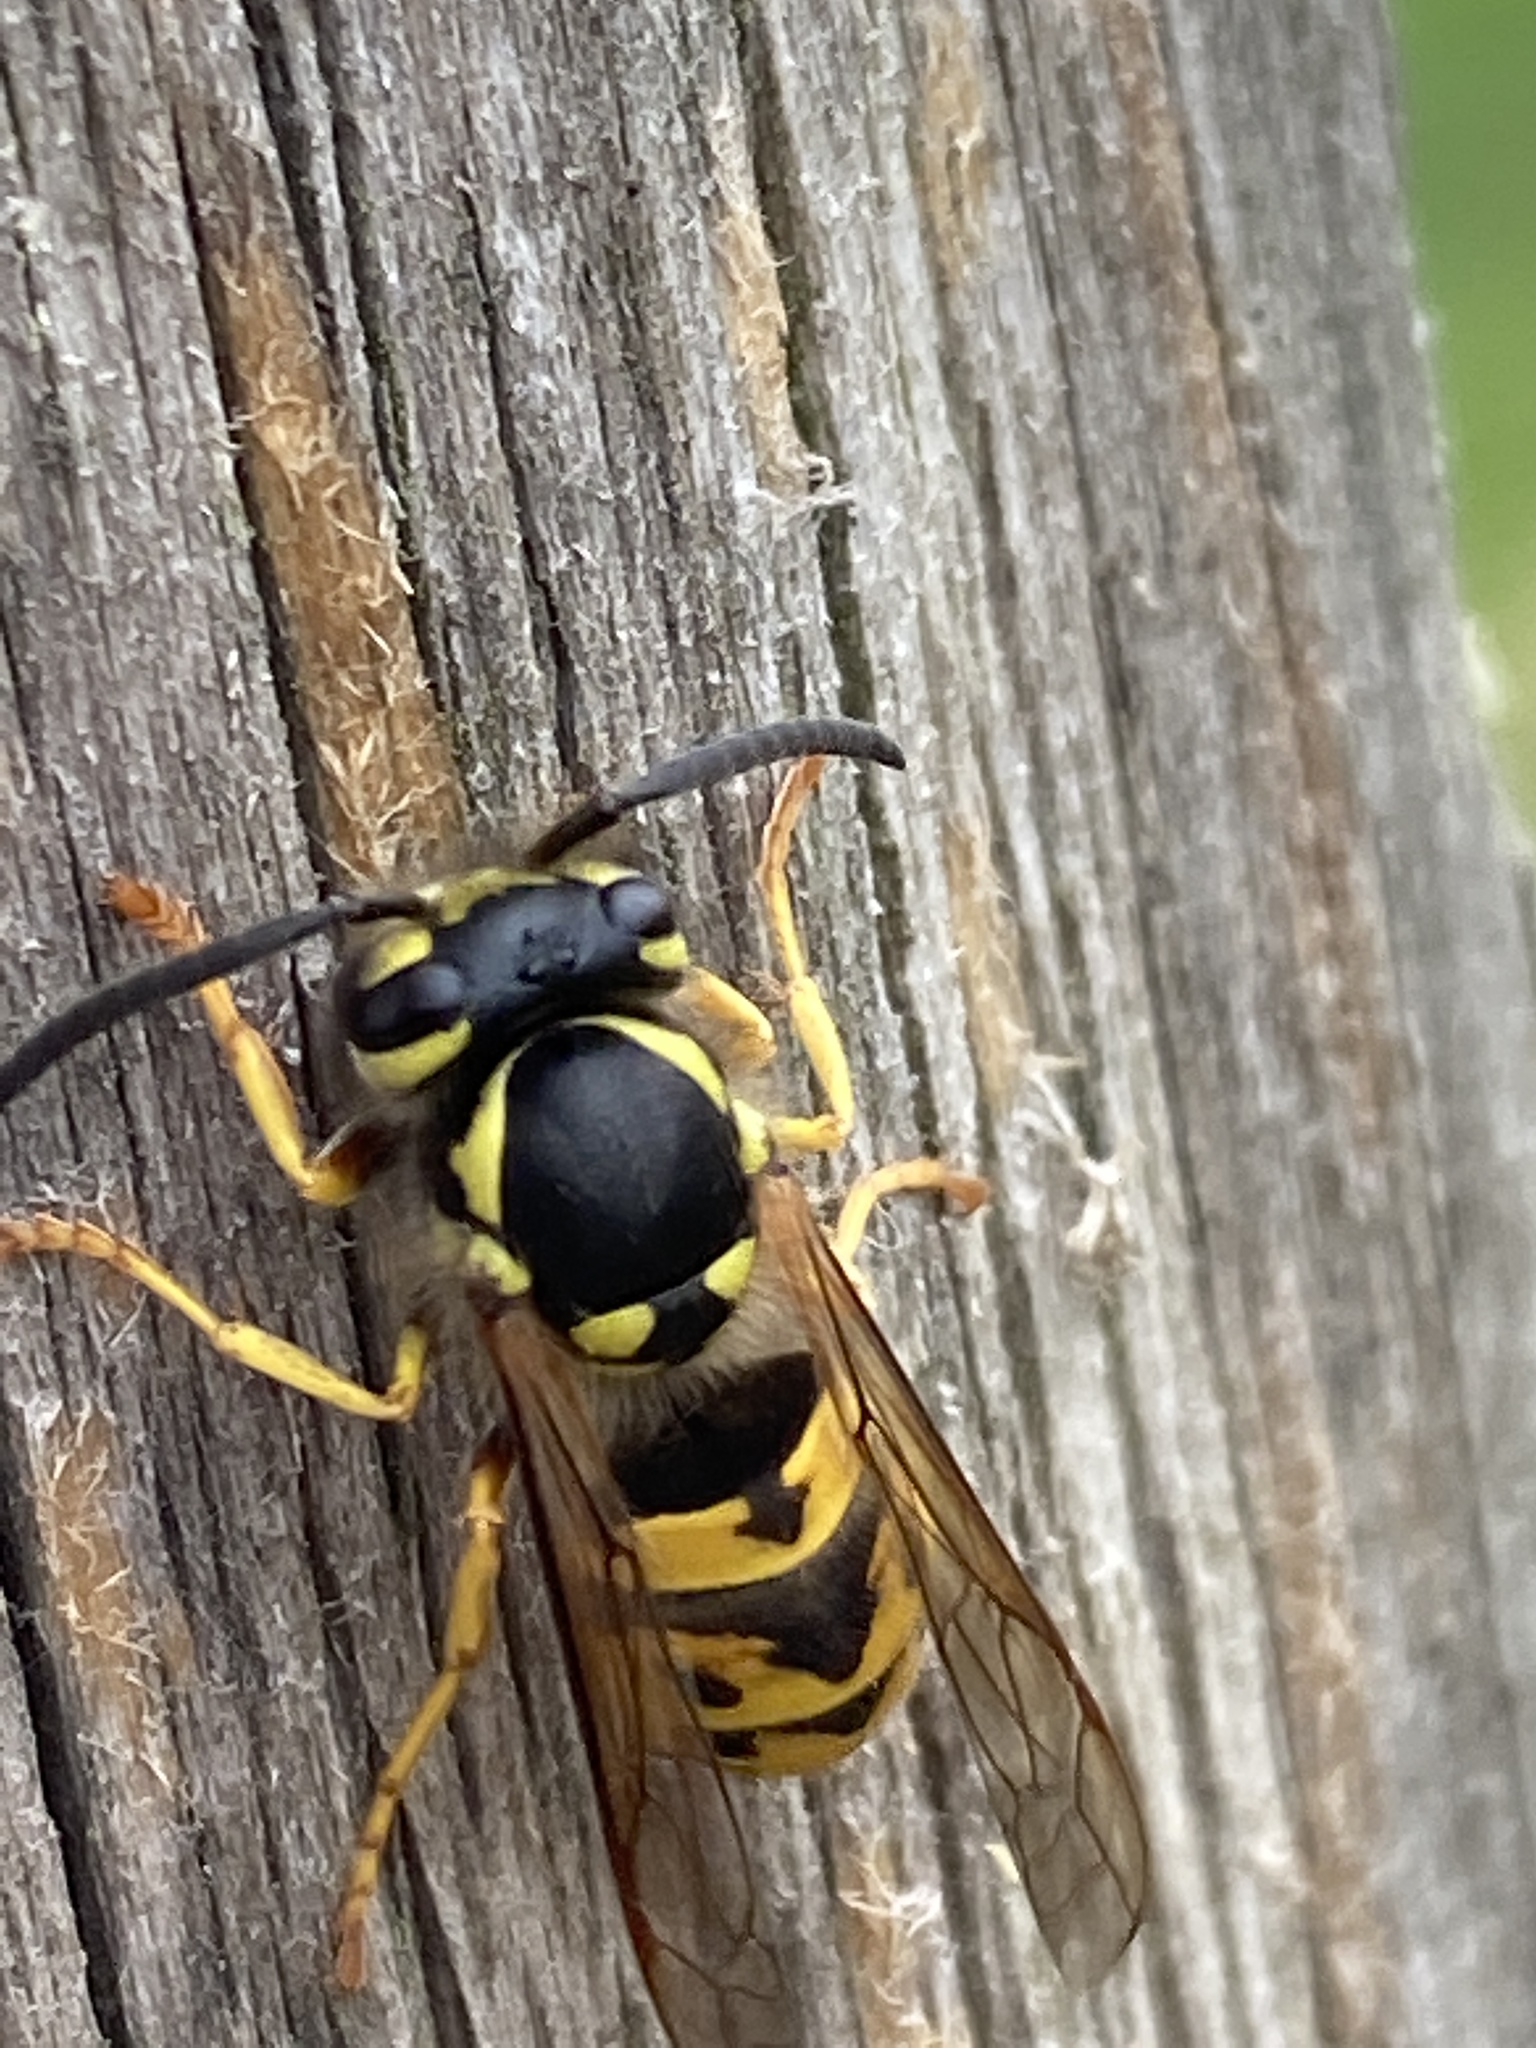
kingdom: Animalia
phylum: Arthropoda
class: Insecta
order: Hymenoptera
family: Vespidae
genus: Vespula
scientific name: Vespula germanica
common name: German wasp
